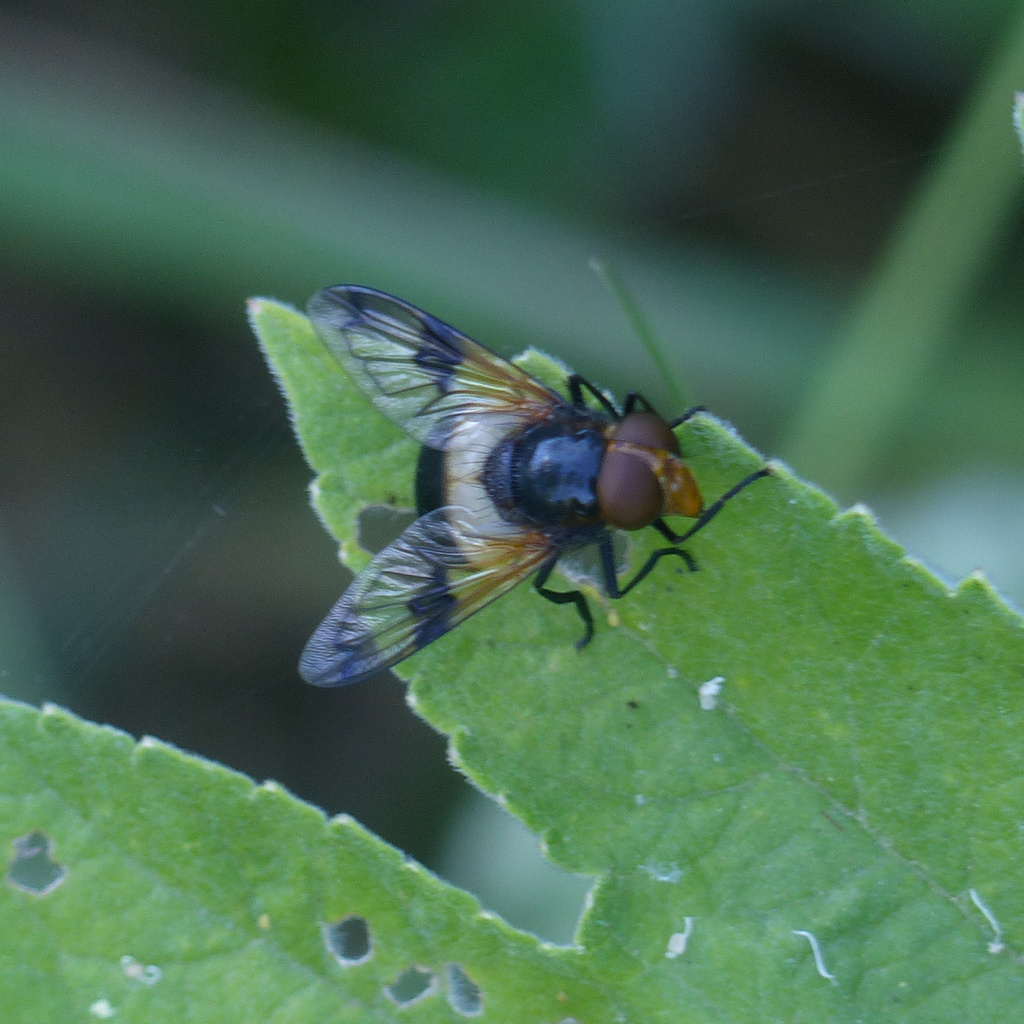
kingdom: Animalia
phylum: Arthropoda
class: Insecta
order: Diptera
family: Syrphidae
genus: Volucella
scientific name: Volucella pellucens
